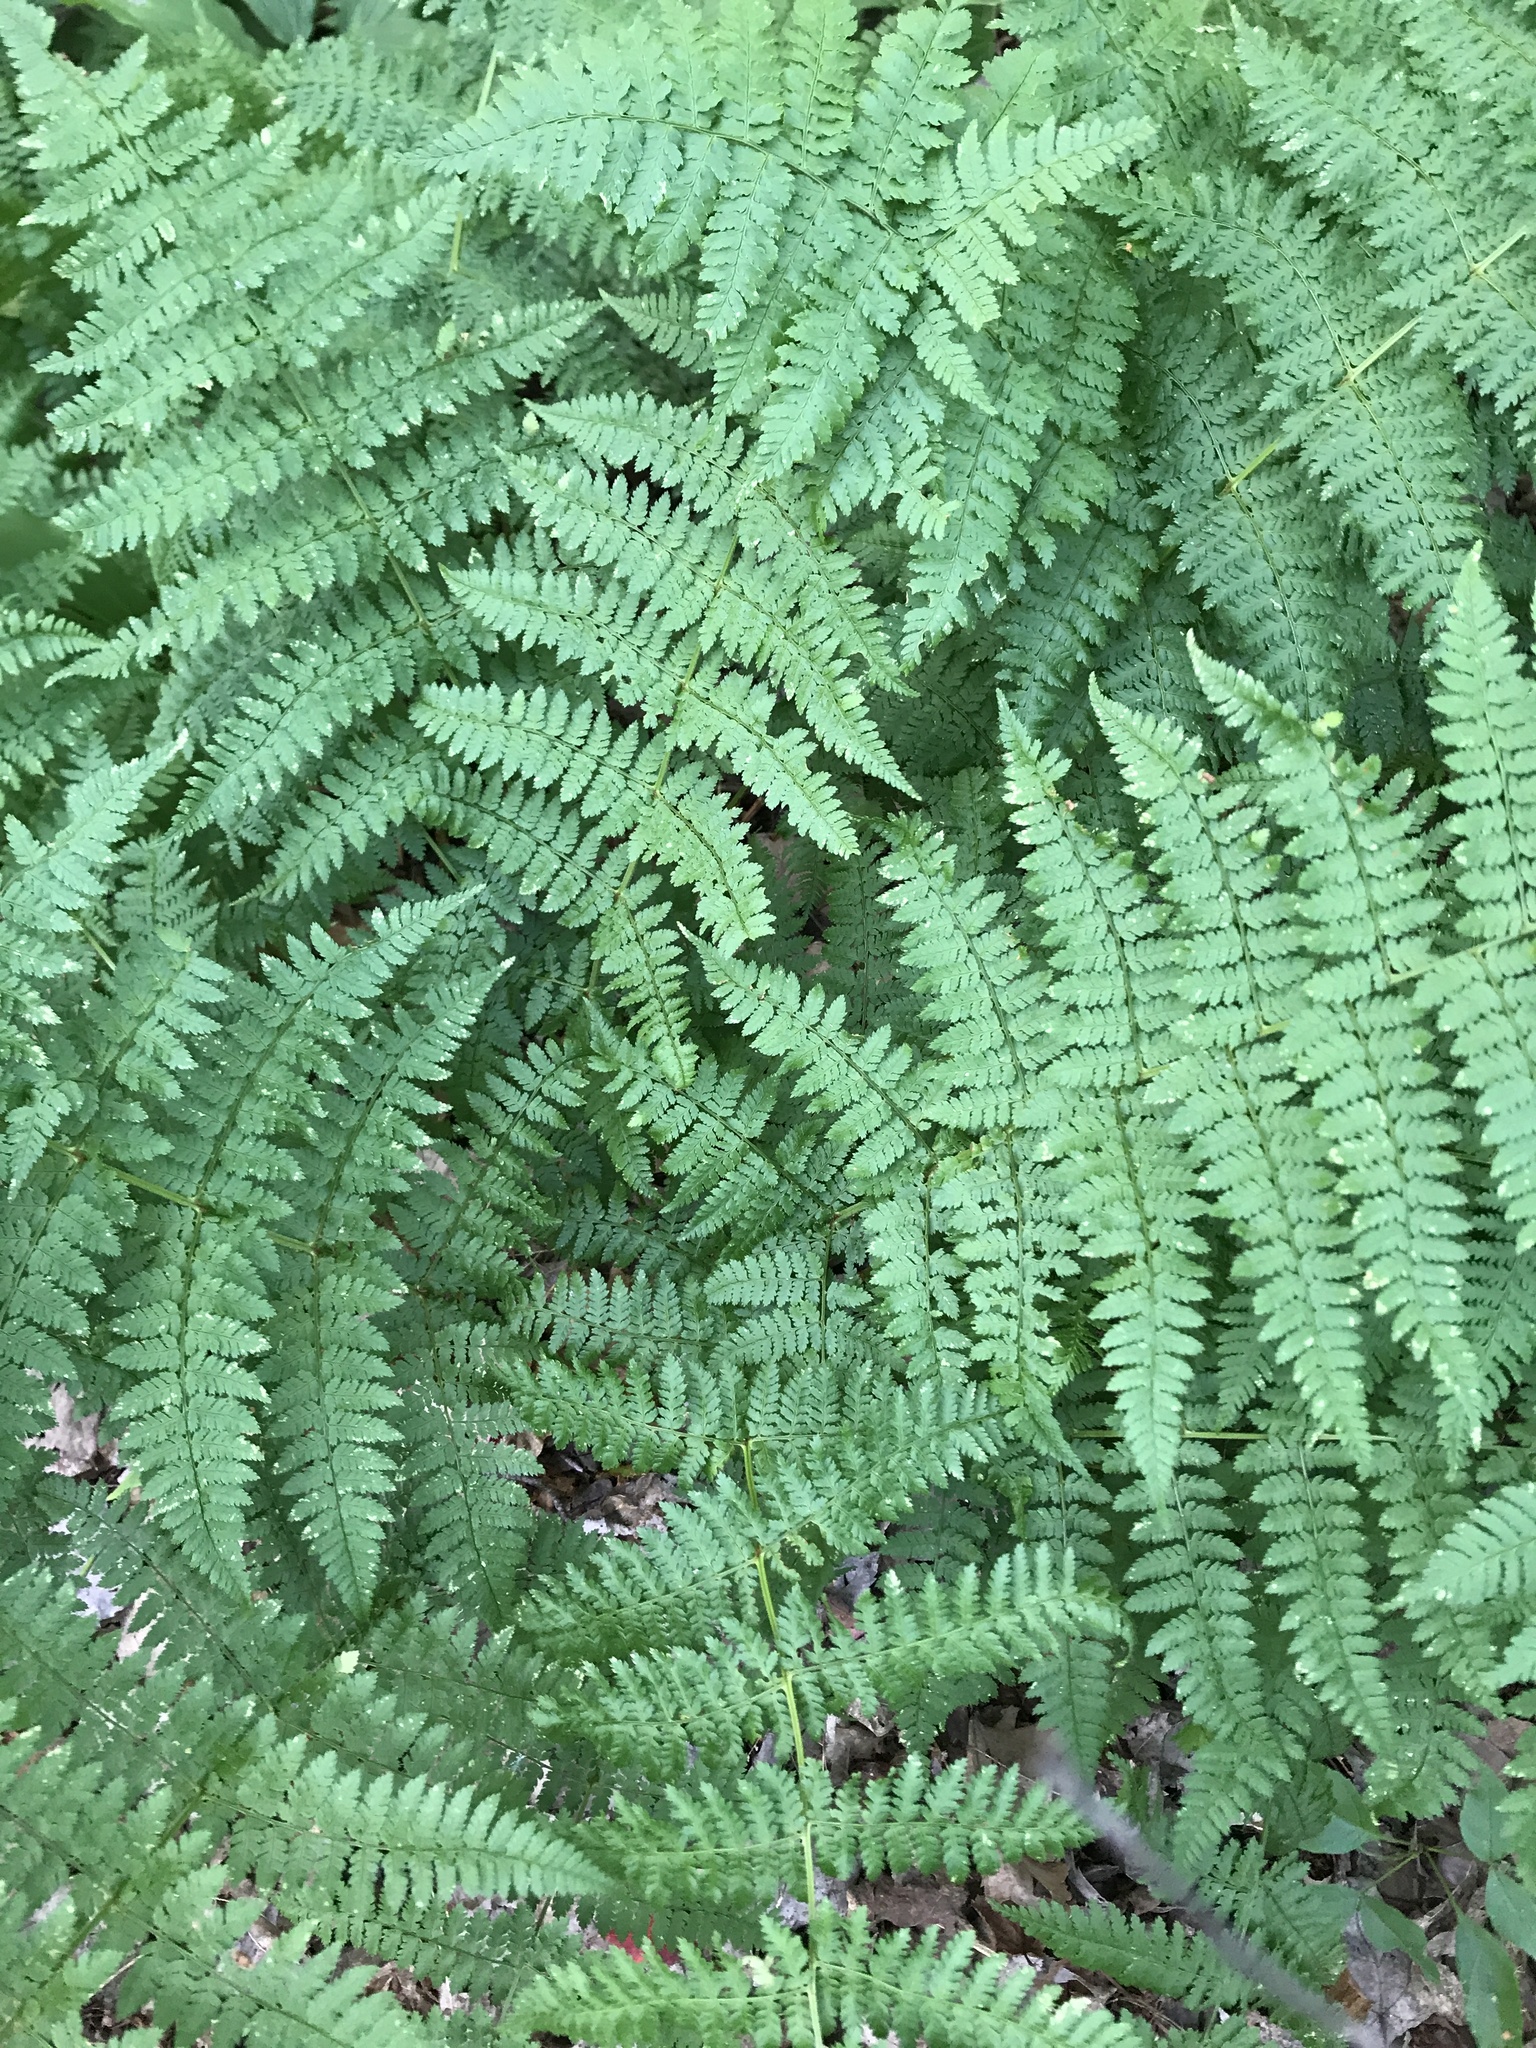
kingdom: Plantae
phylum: Tracheophyta
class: Polypodiopsida
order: Polypodiales
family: Dryopteridaceae
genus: Dryopteris
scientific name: Dryopteris intermedia
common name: Evergreen wood fern
